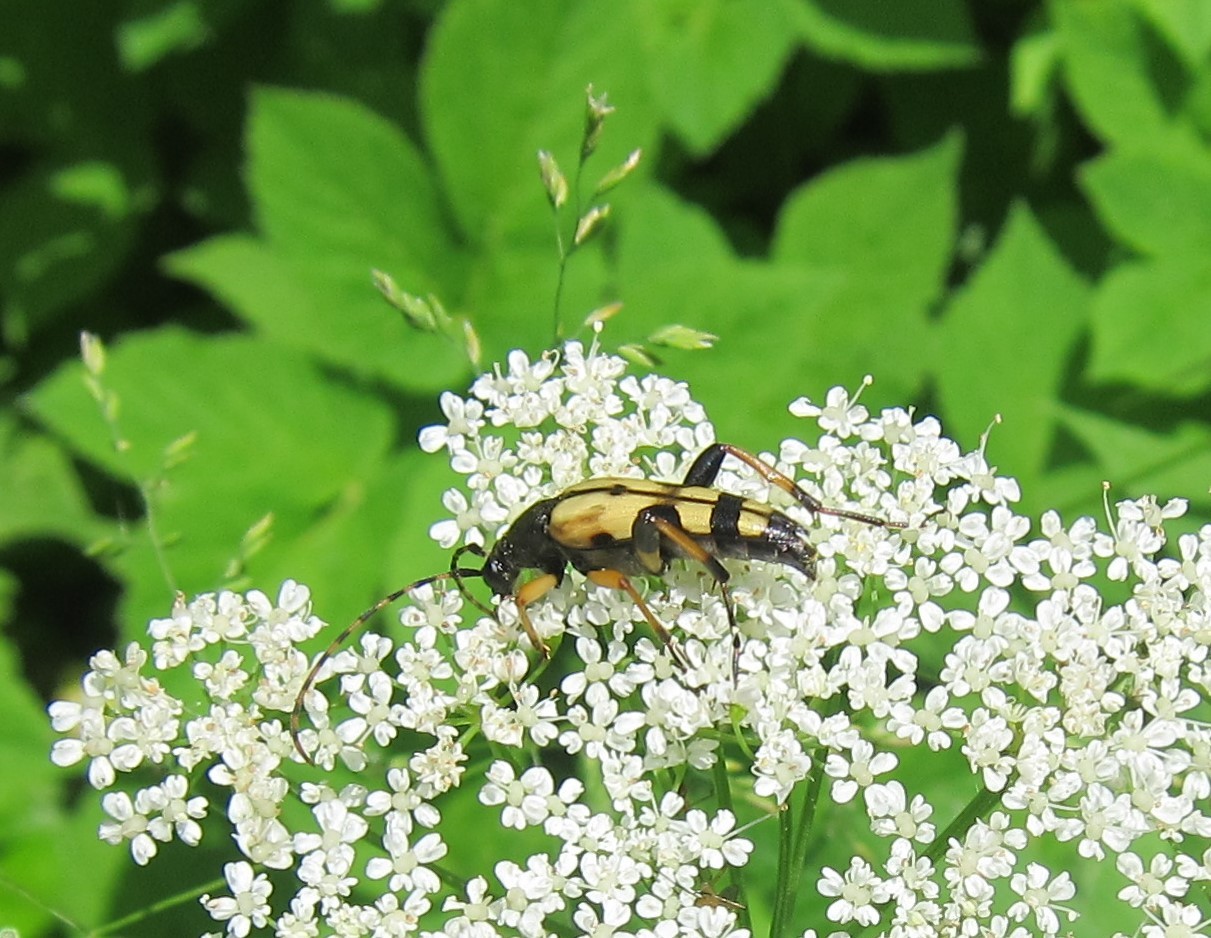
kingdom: Animalia
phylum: Arthropoda
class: Insecta
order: Coleoptera
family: Cerambycidae
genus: Rutpela
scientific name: Rutpela maculata
